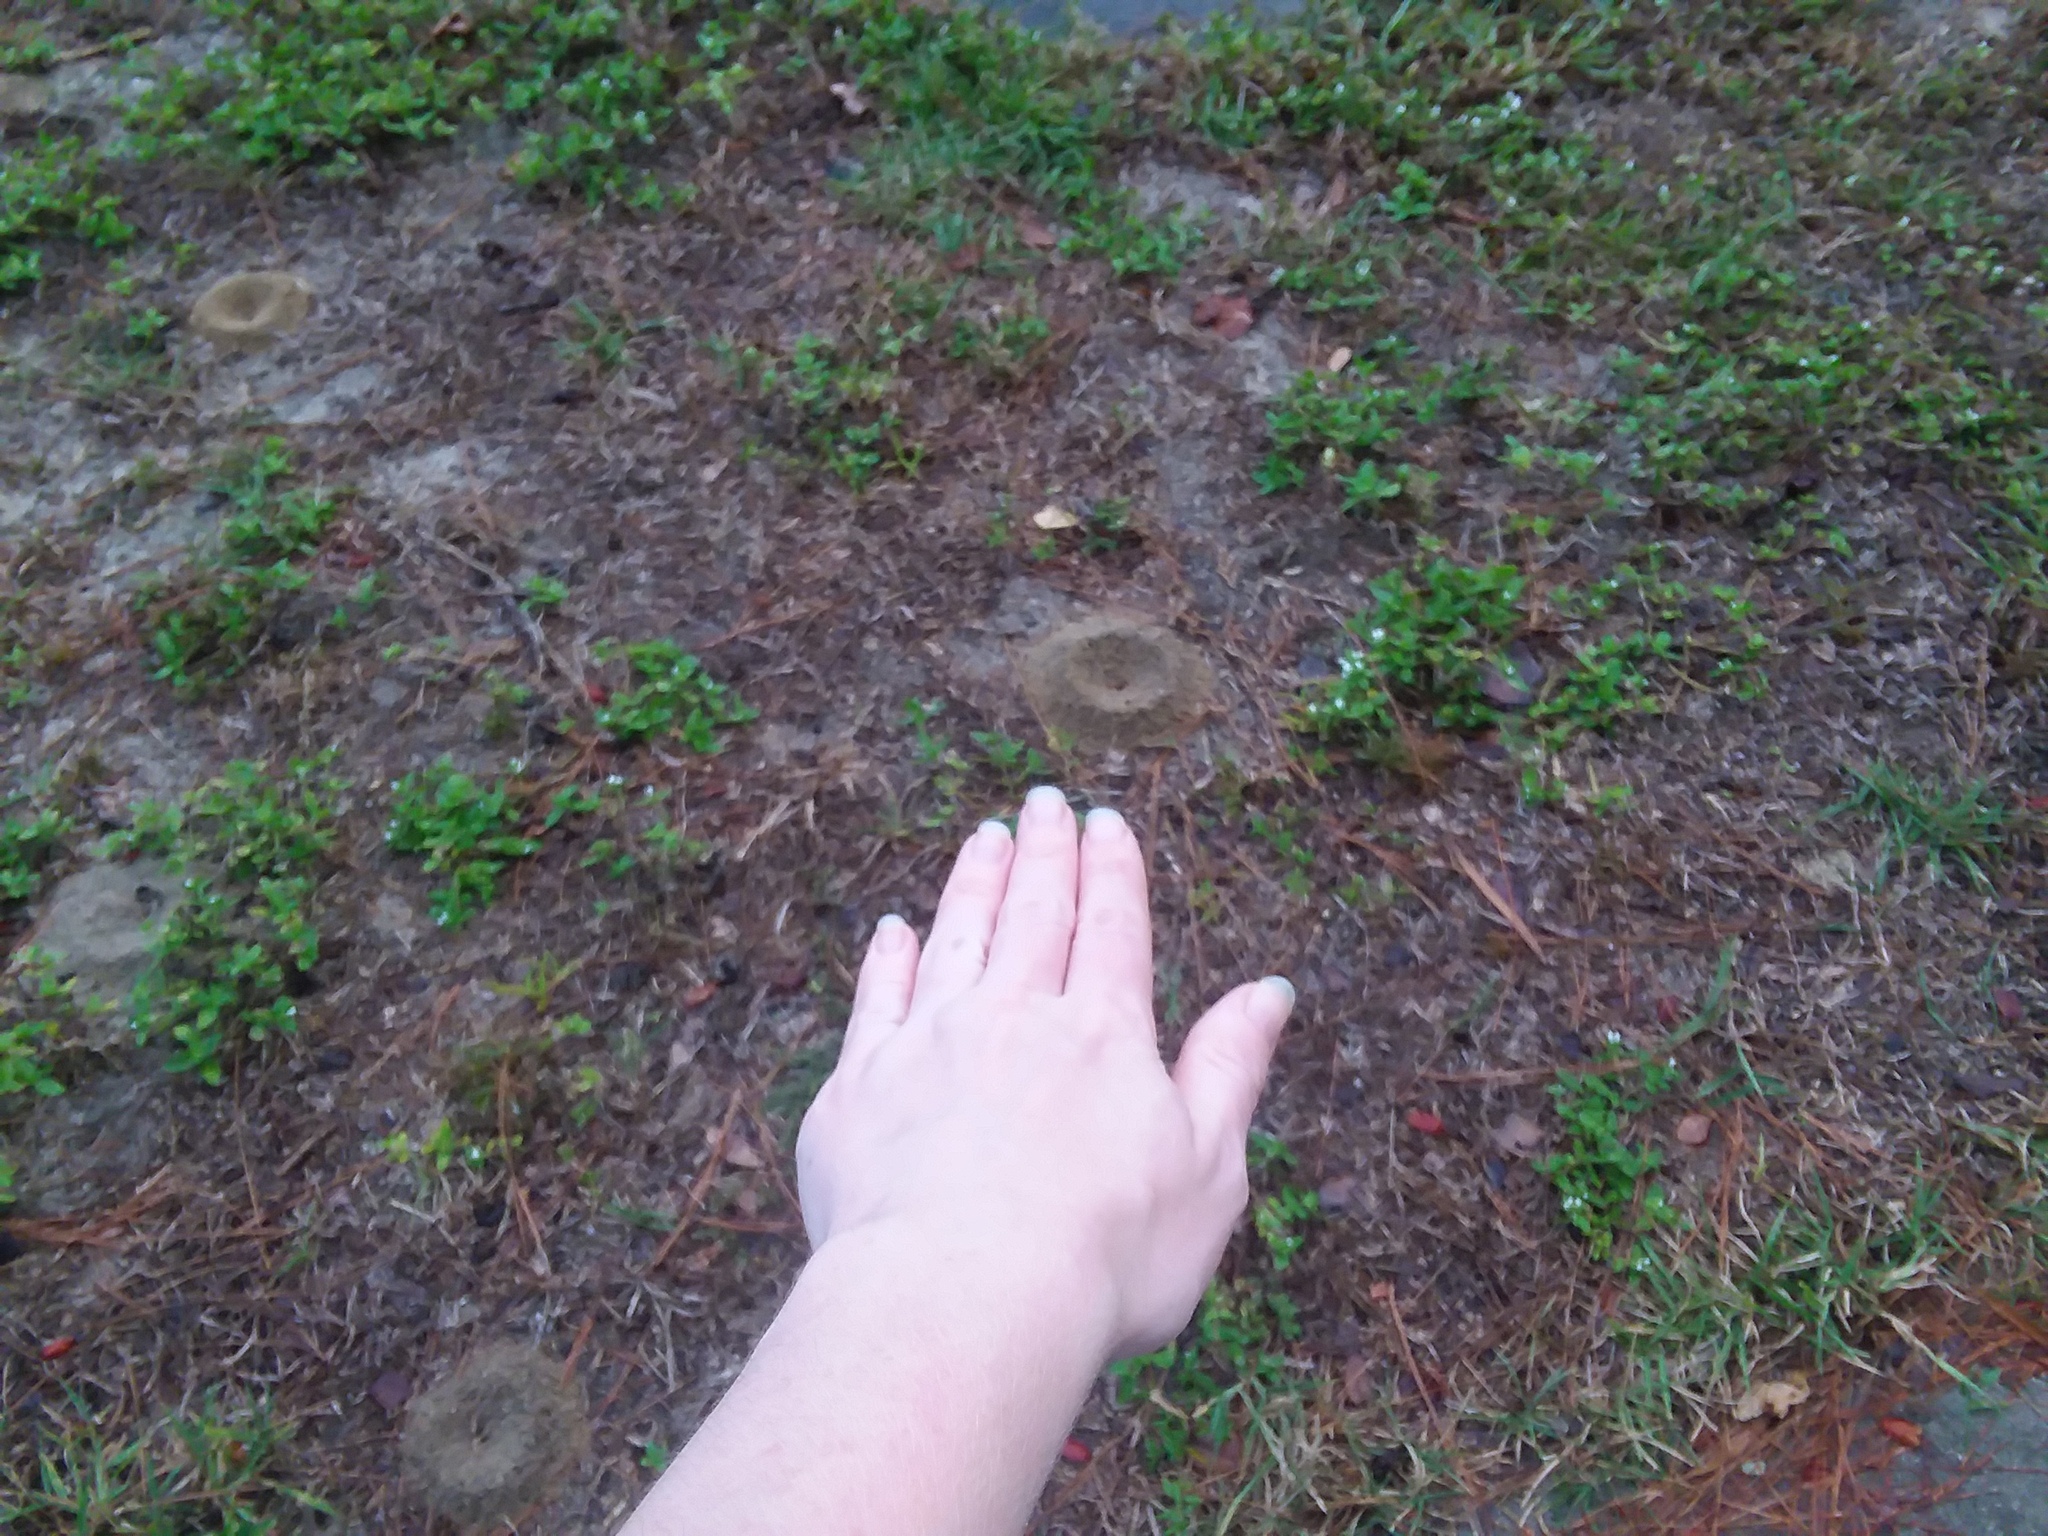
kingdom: Animalia
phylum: Arthropoda
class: Insecta
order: Hymenoptera
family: Formicidae
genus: Dorymyrmex
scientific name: Dorymyrmex bureni
